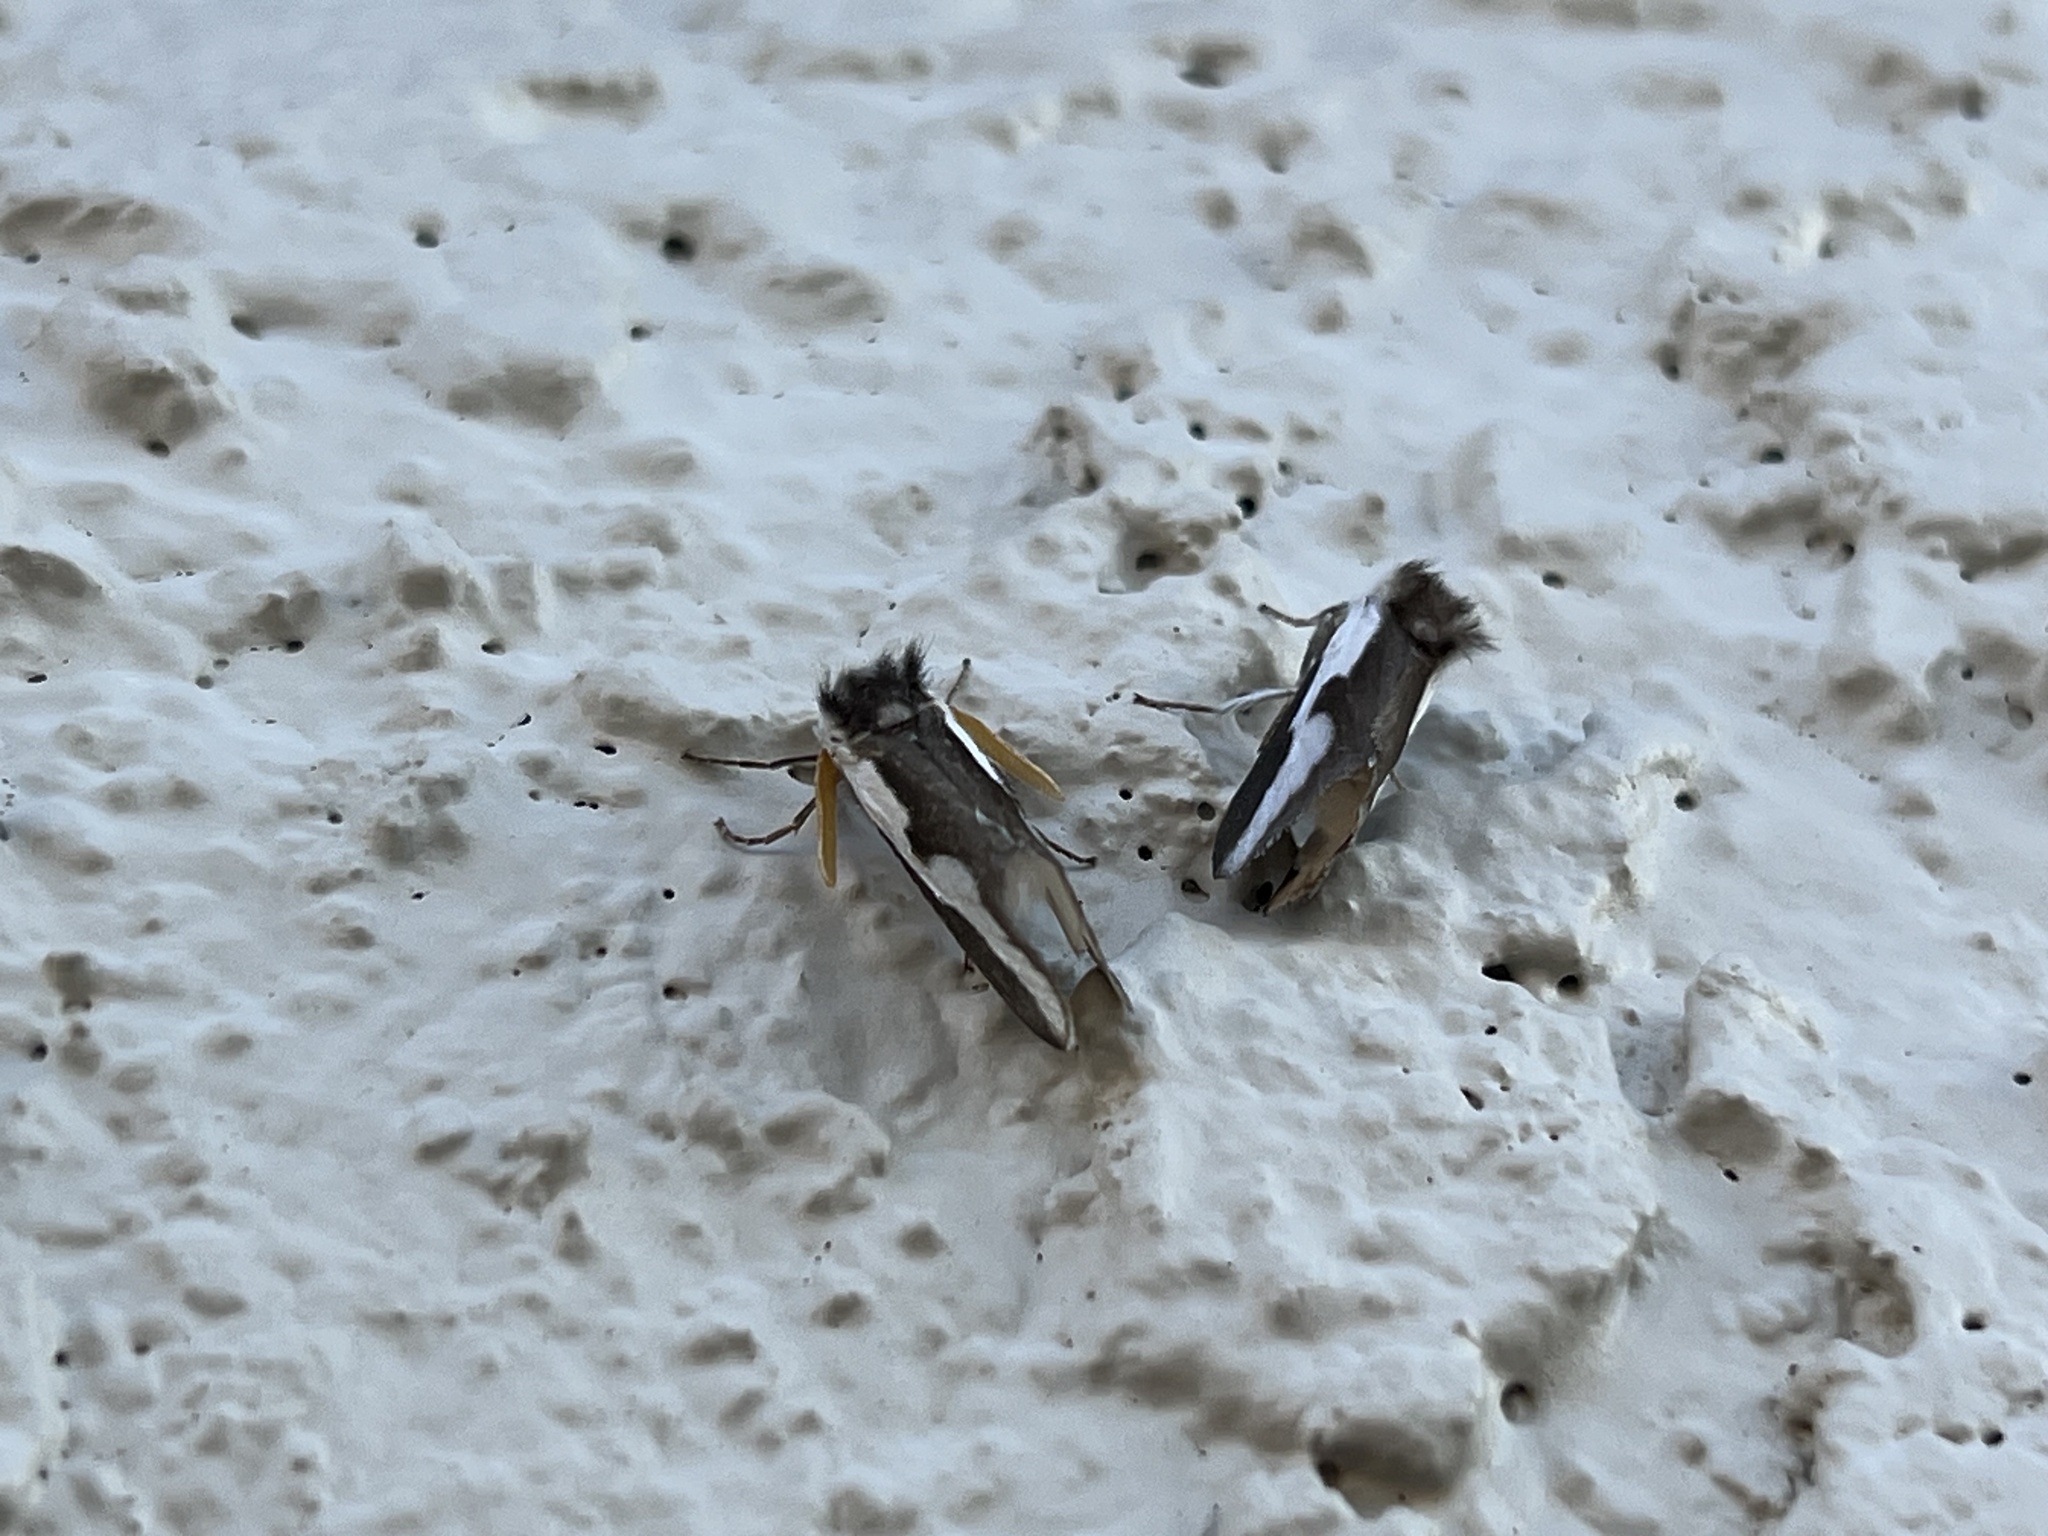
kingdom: Animalia
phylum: Arthropoda
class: Insecta
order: Lepidoptera
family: Megalopygidae
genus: Norape
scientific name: Norape tener
